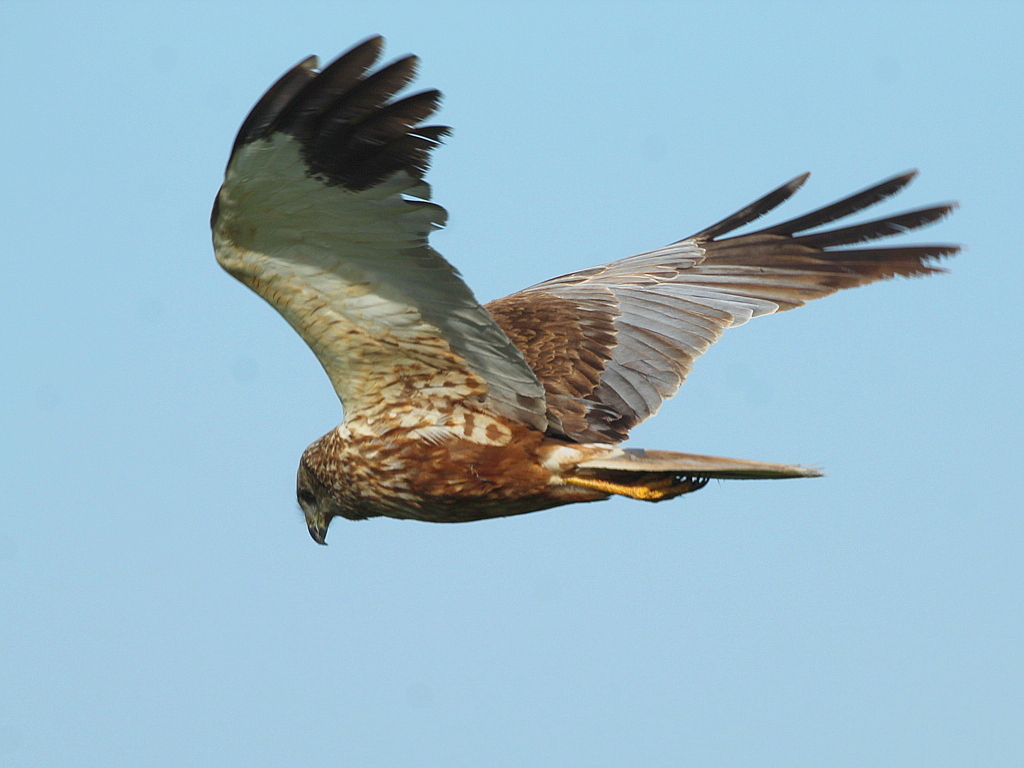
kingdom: Animalia
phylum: Chordata
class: Aves
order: Accipitriformes
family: Accipitridae
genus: Circus
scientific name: Circus aeruginosus
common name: Western marsh harrier
